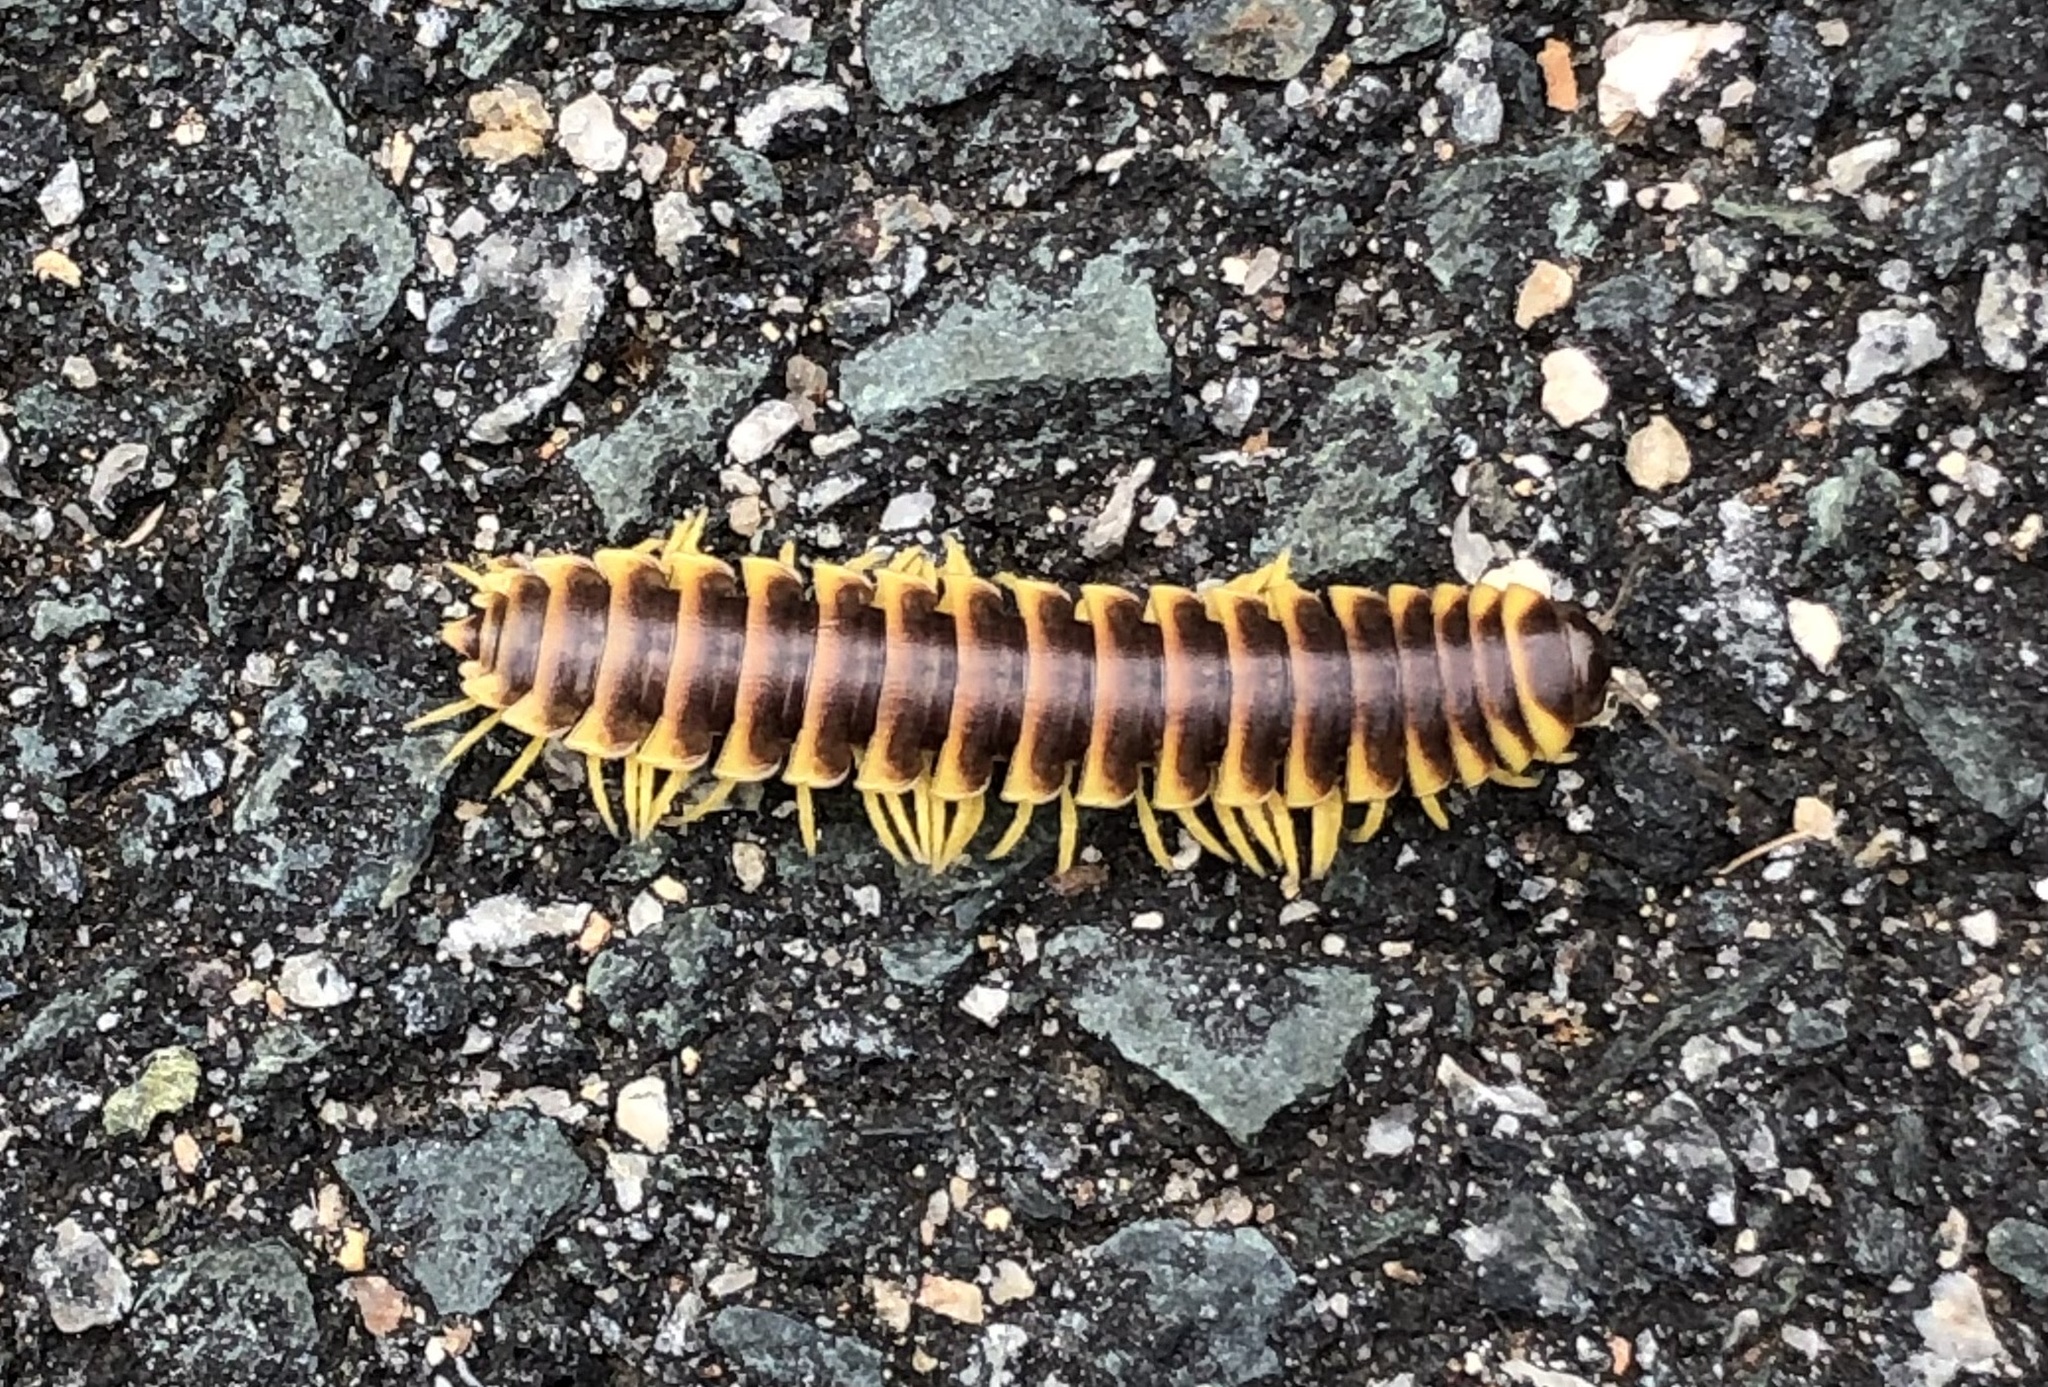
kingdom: Animalia
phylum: Arthropoda
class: Diplopoda
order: Polydesmida
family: Xystodesmidae
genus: Apheloria
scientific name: Apheloria virginiensis
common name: Black-and-gold flat millipede
